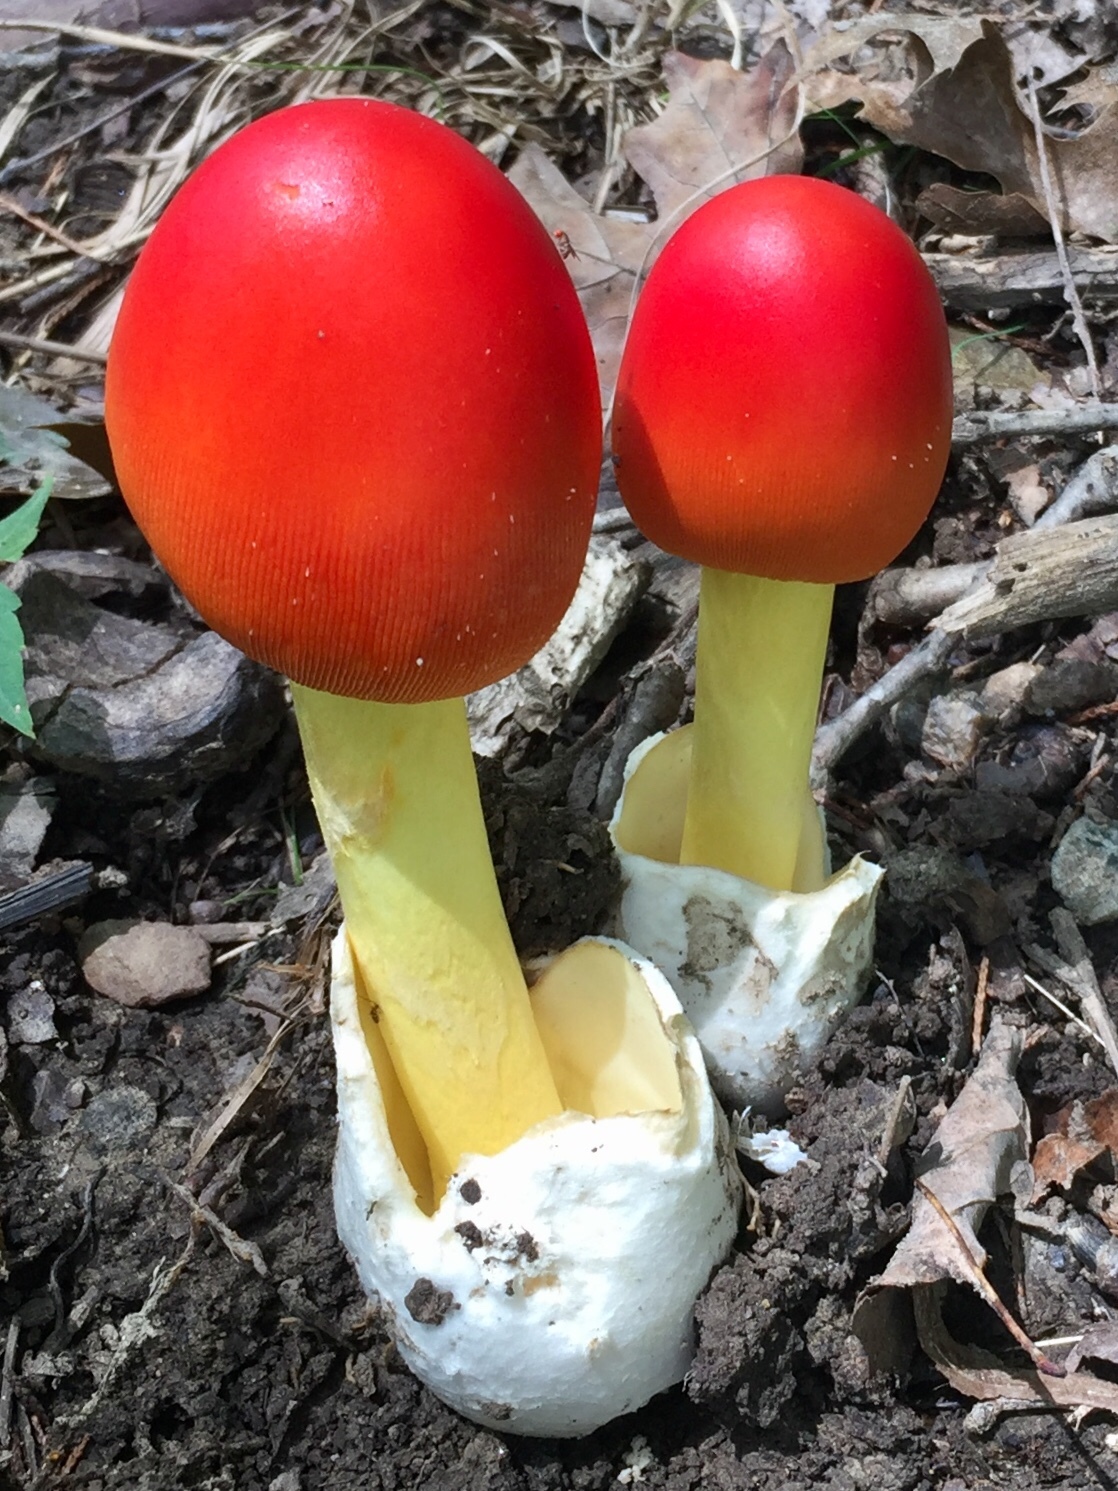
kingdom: Fungi
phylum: Basidiomycota
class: Agaricomycetes
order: Agaricales
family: Amanitaceae
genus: Amanita
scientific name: Amanita jacksonii
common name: Jackson's slender caesar
